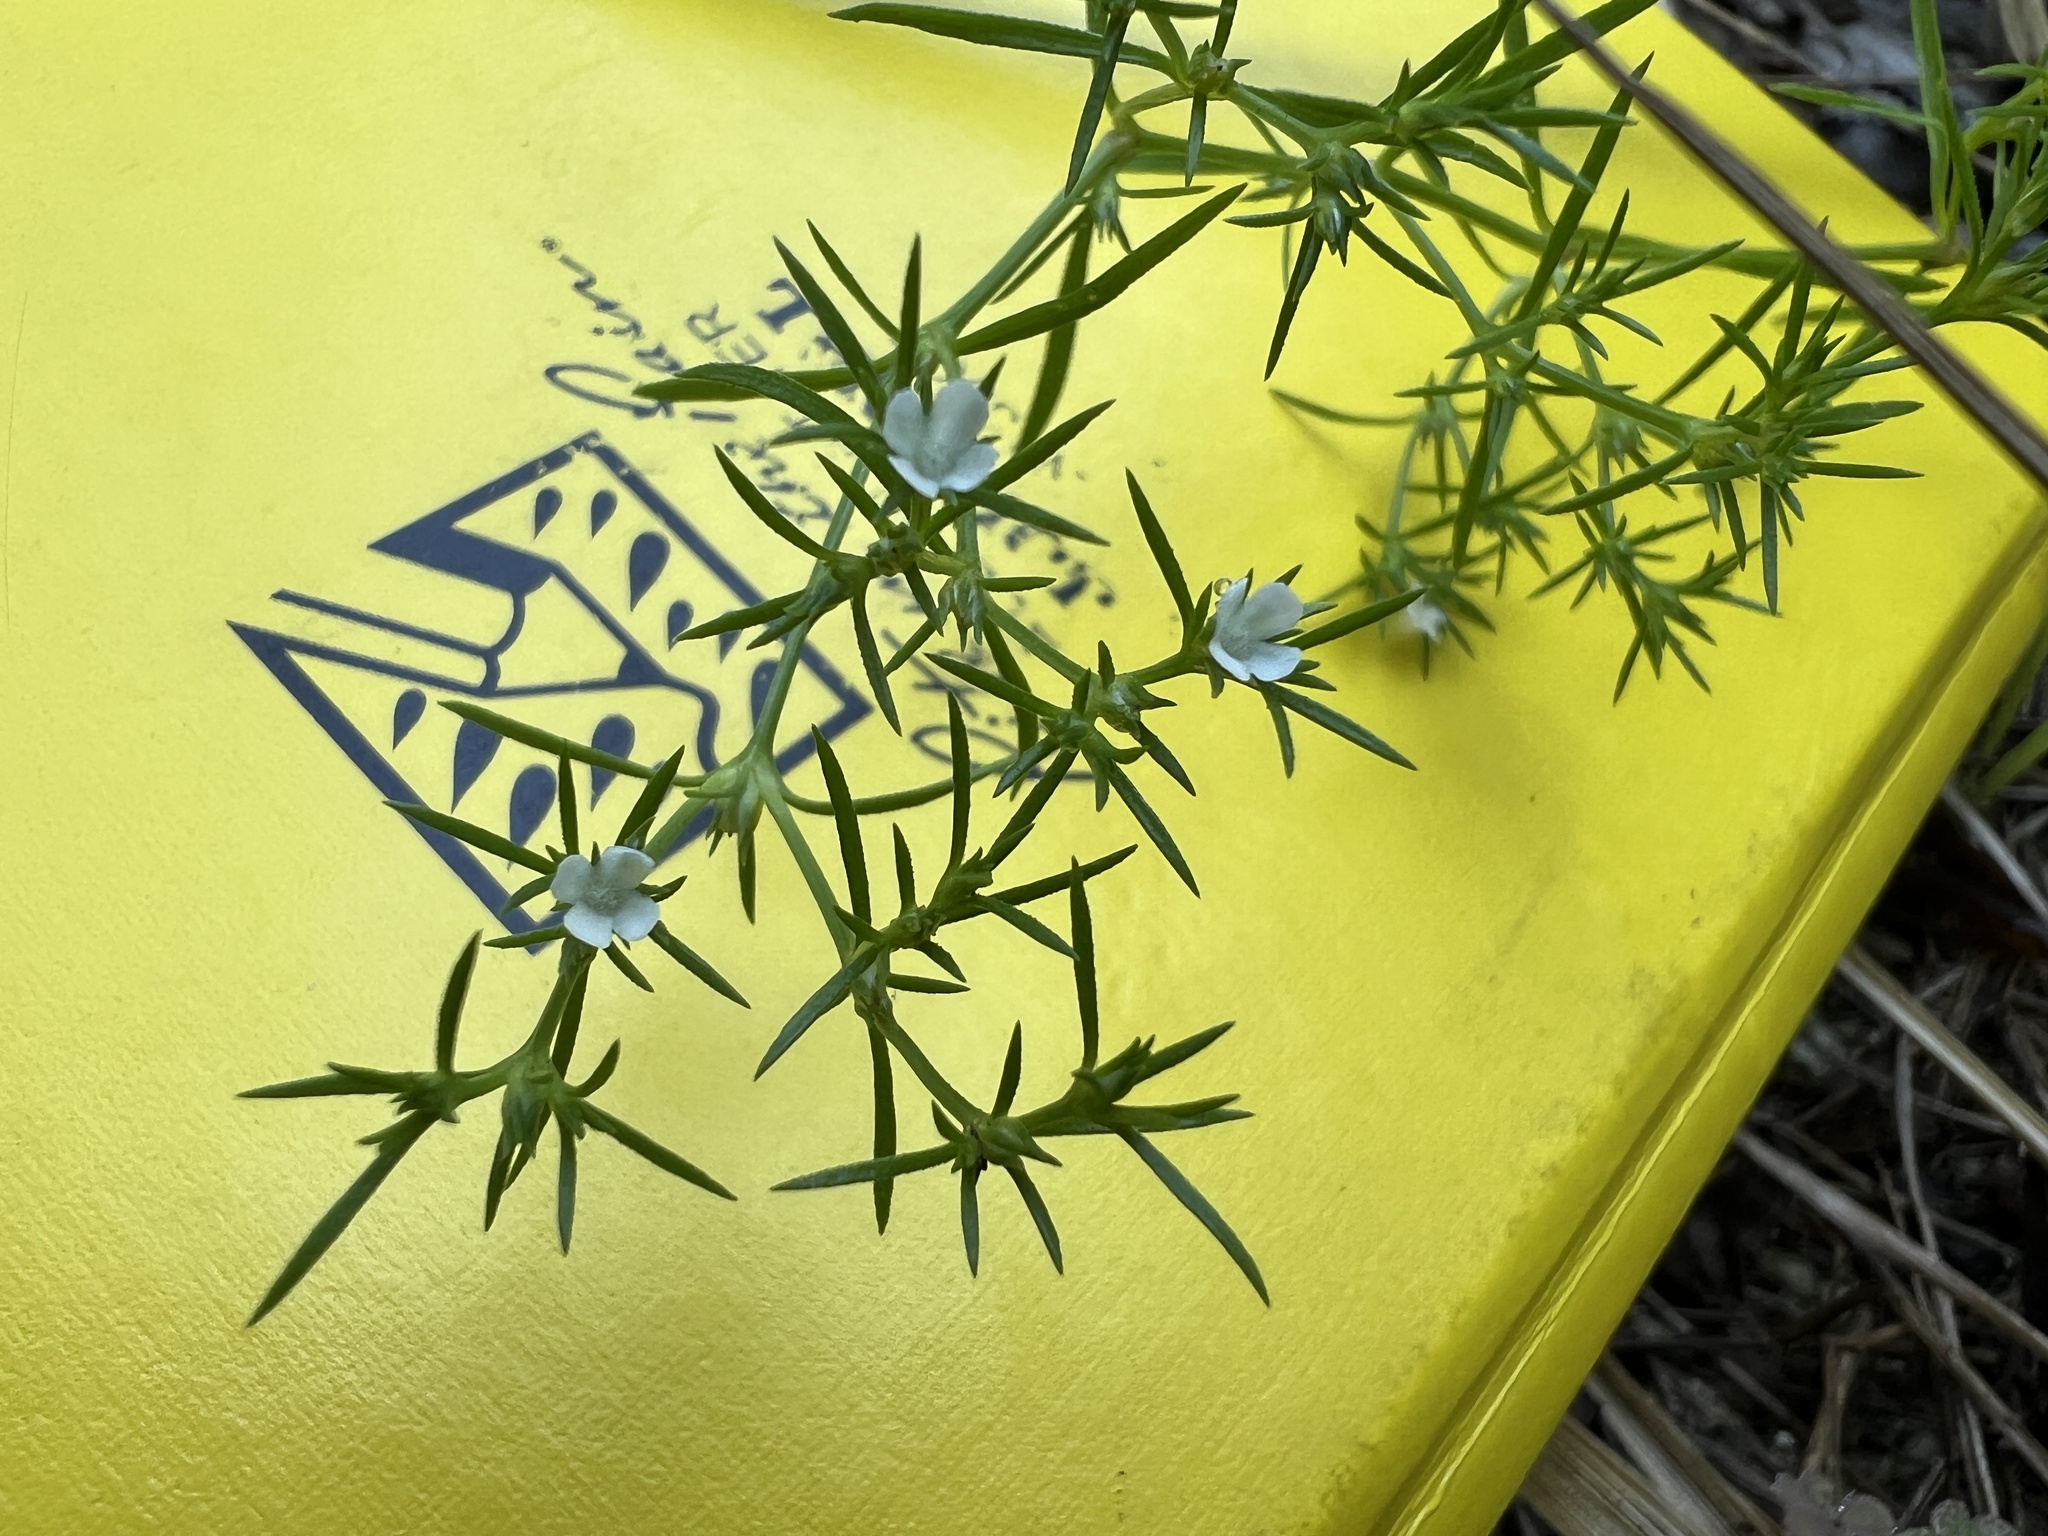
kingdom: Plantae
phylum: Tracheophyta
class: Magnoliopsida
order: Lamiales
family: Tetrachondraceae
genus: Polypremum
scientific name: Polypremum procumbens
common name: Juniper-leaf
